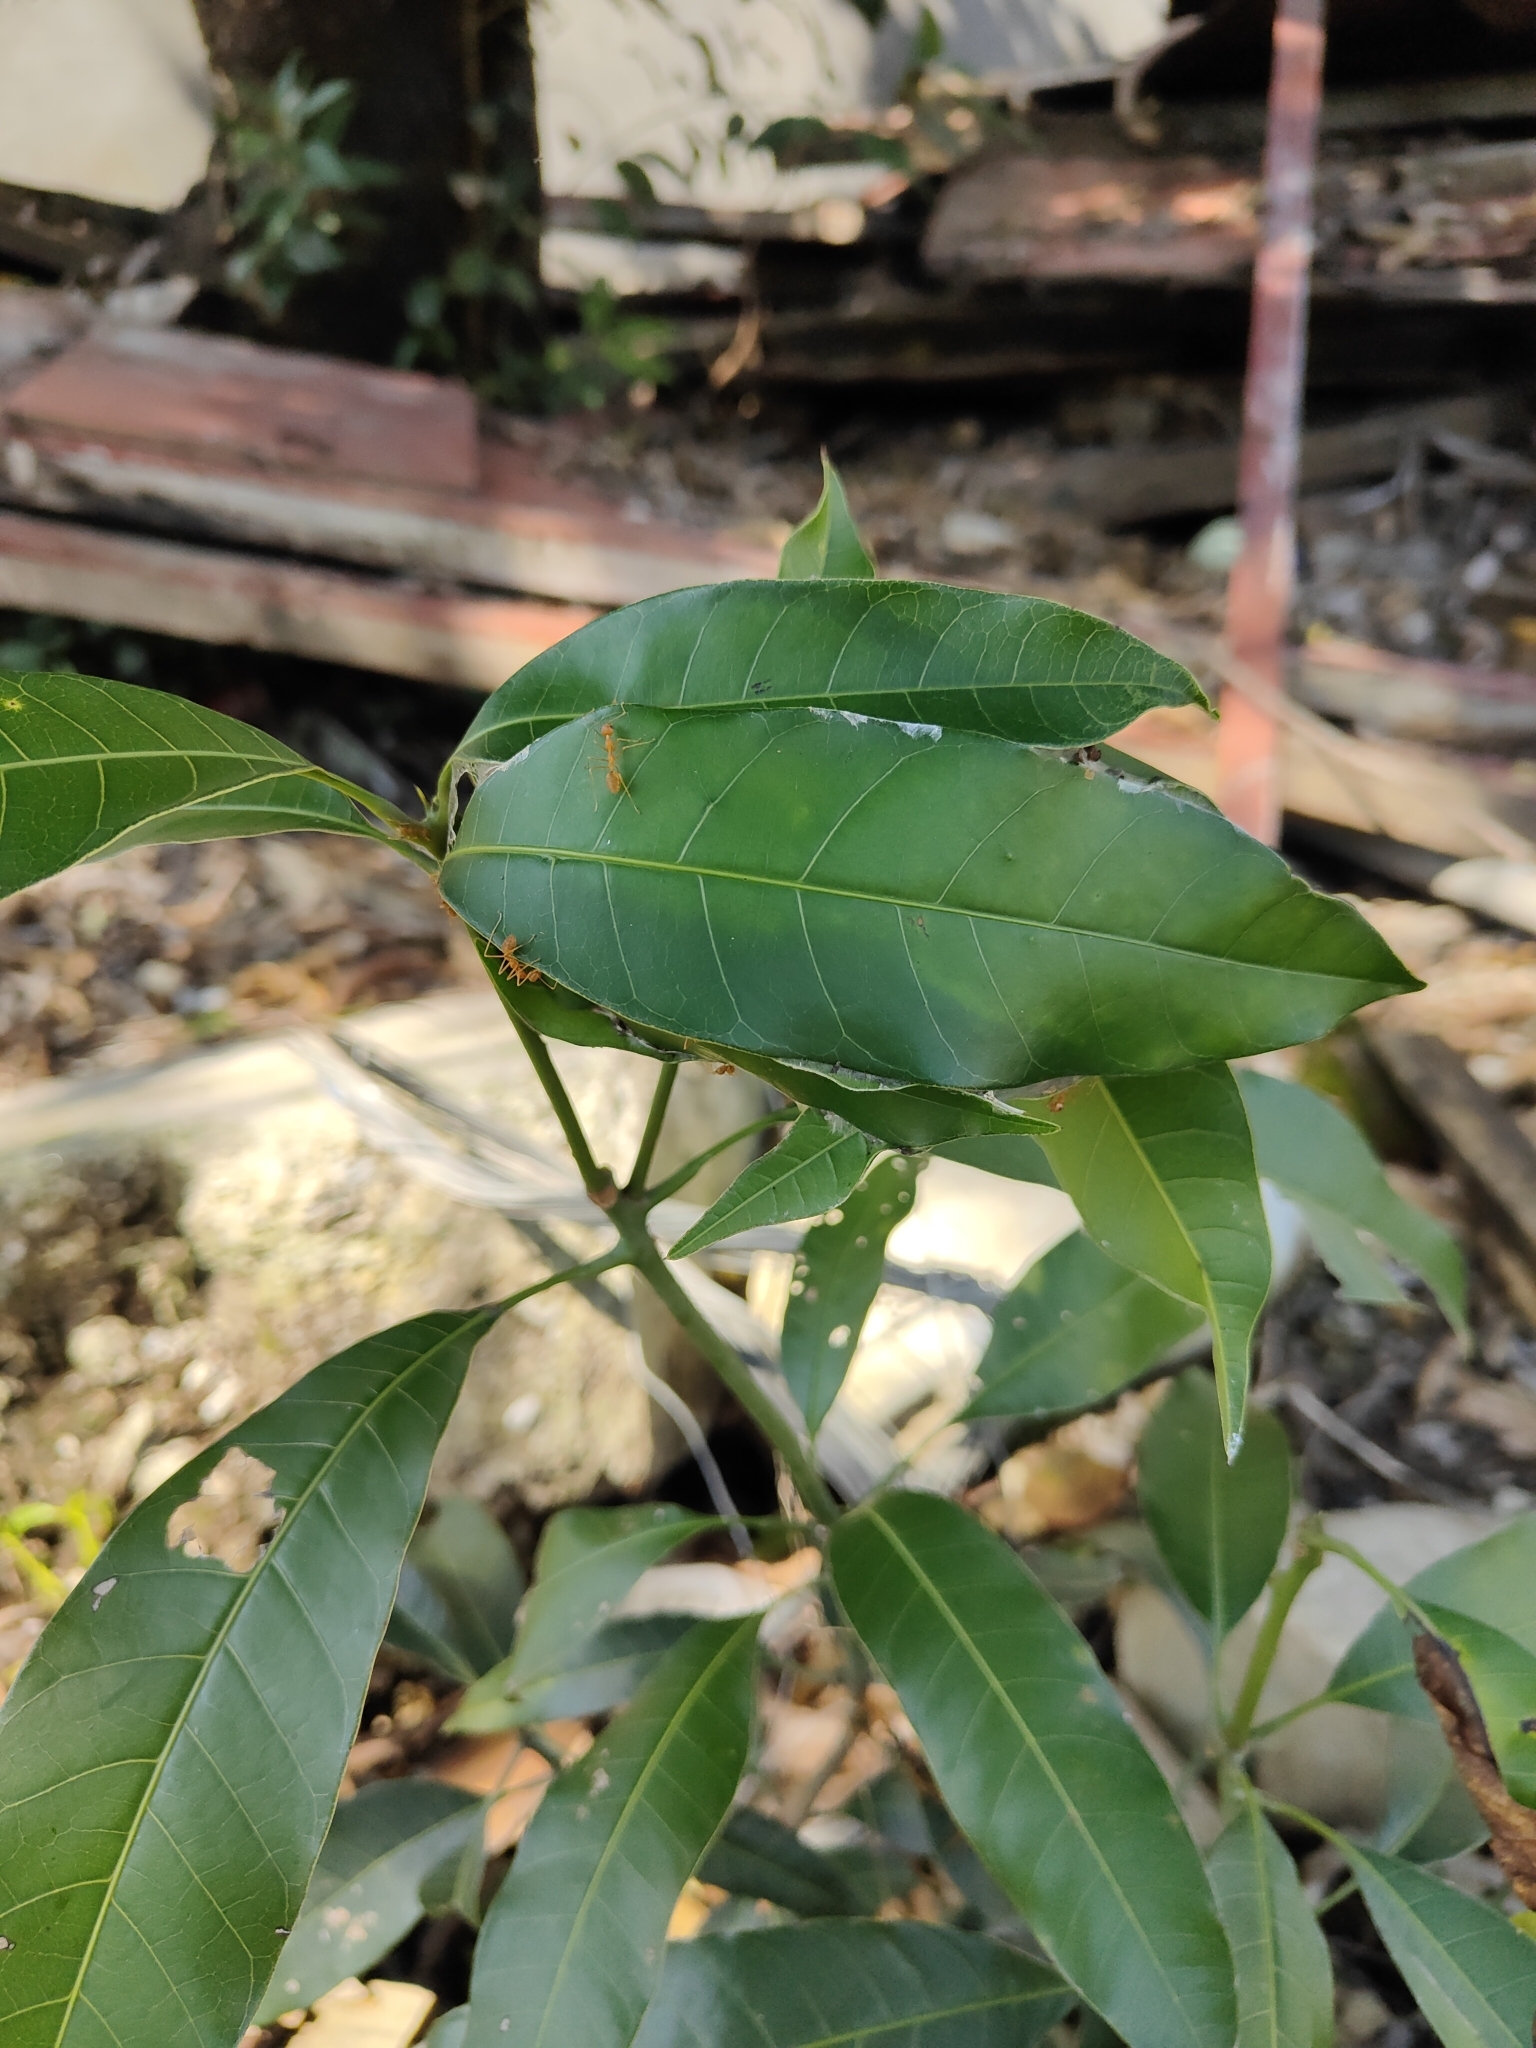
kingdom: Animalia
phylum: Arthropoda
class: Insecta
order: Hymenoptera
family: Formicidae
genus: Oecophylla
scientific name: Oecophylla smaragdina
